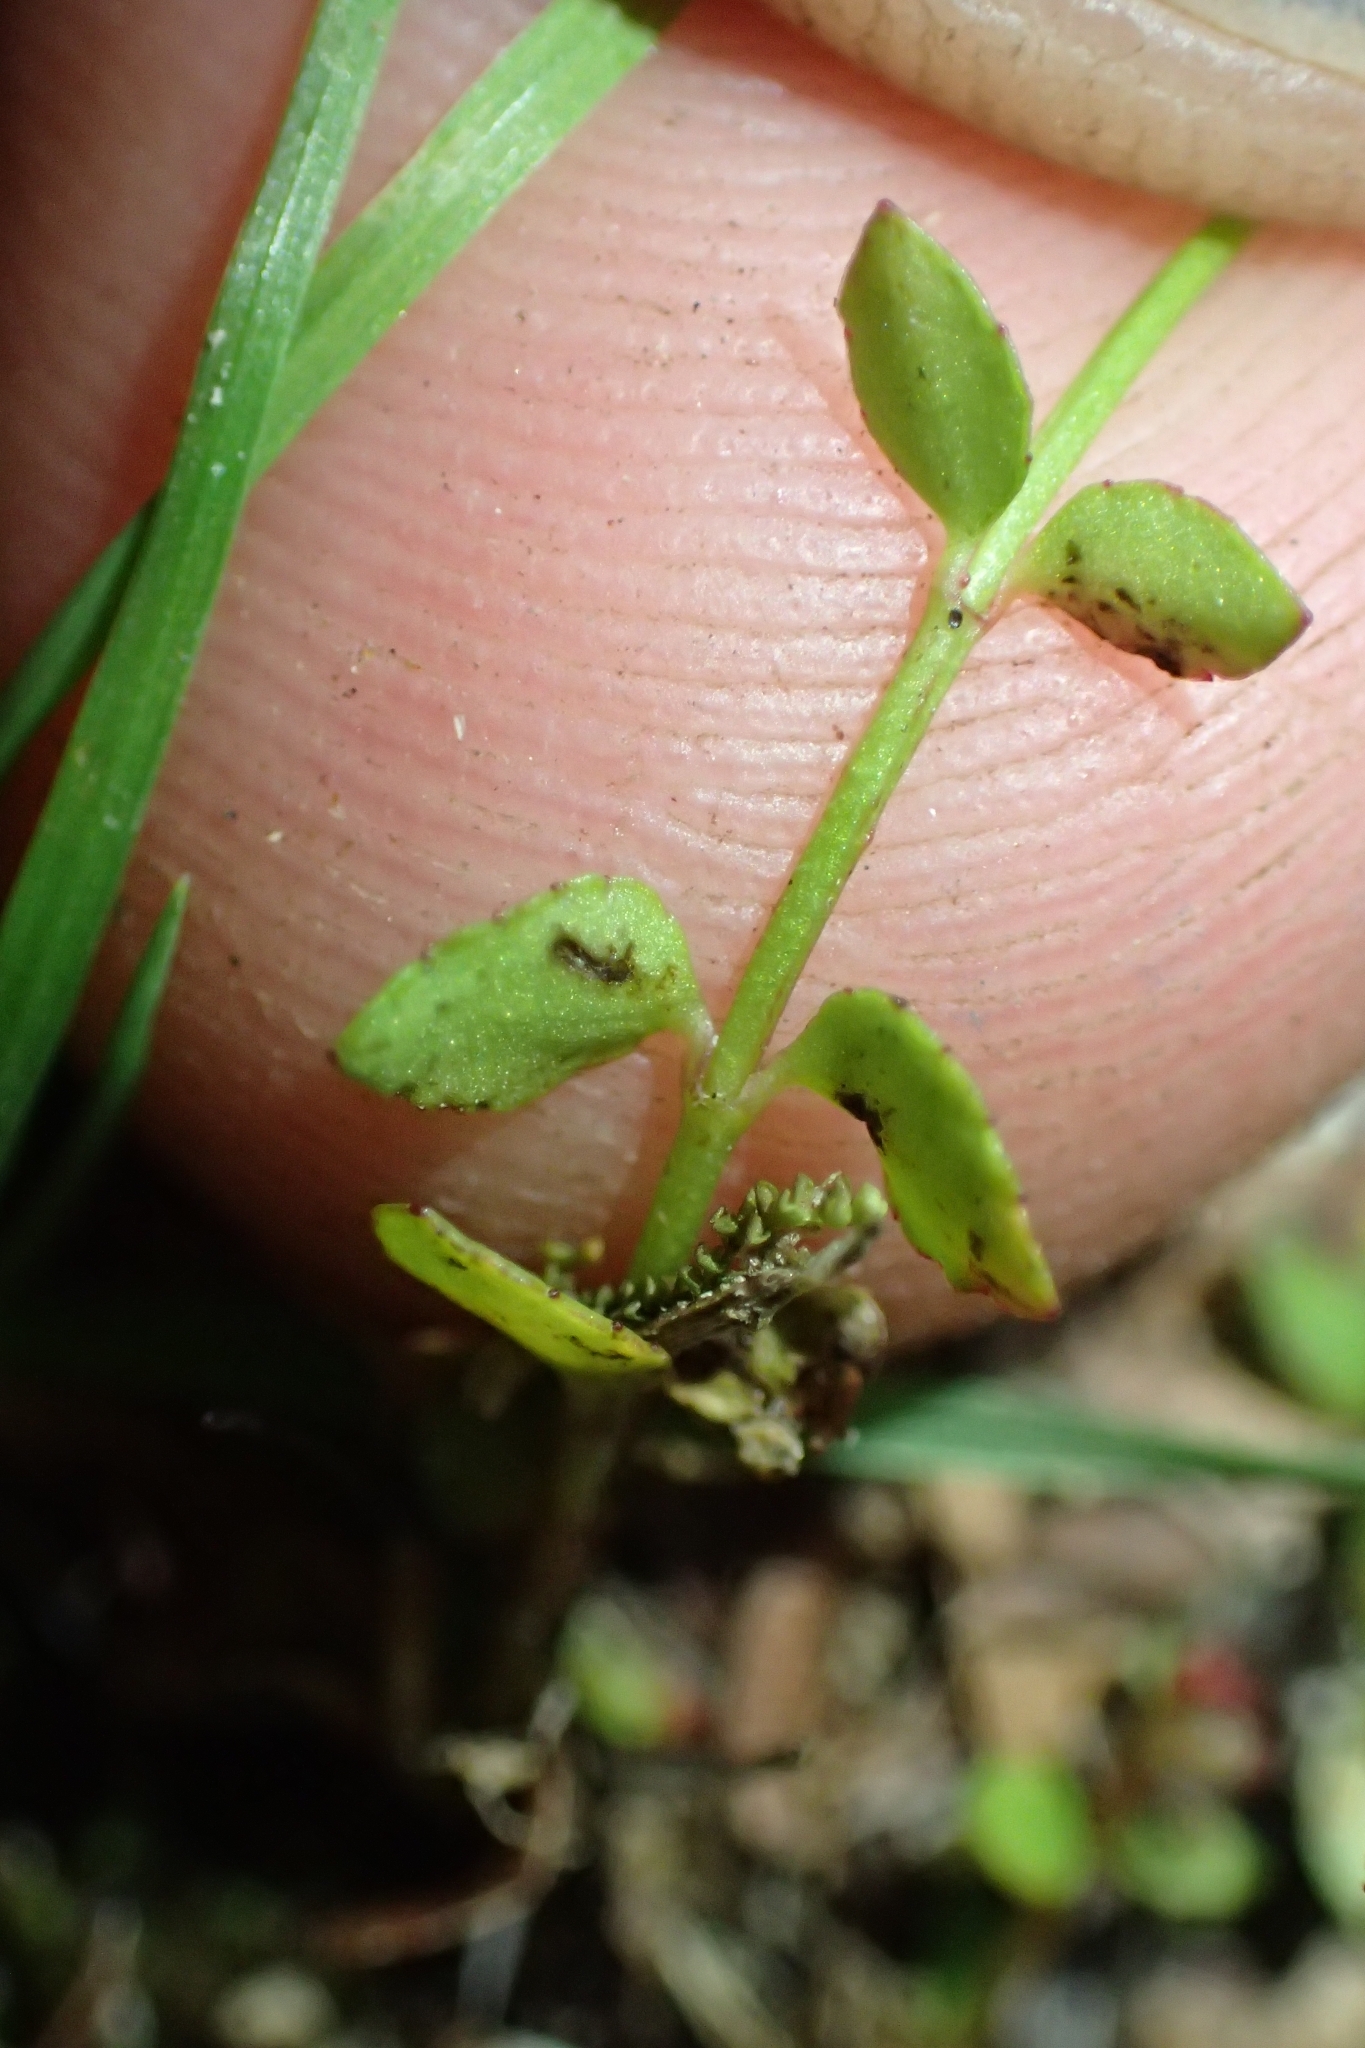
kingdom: Plantae
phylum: Tracheophyta
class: Magnoliopsida
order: Saxifragales
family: Haloragaceae
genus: Gonocarpus
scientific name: Gonocarpus micranthus
